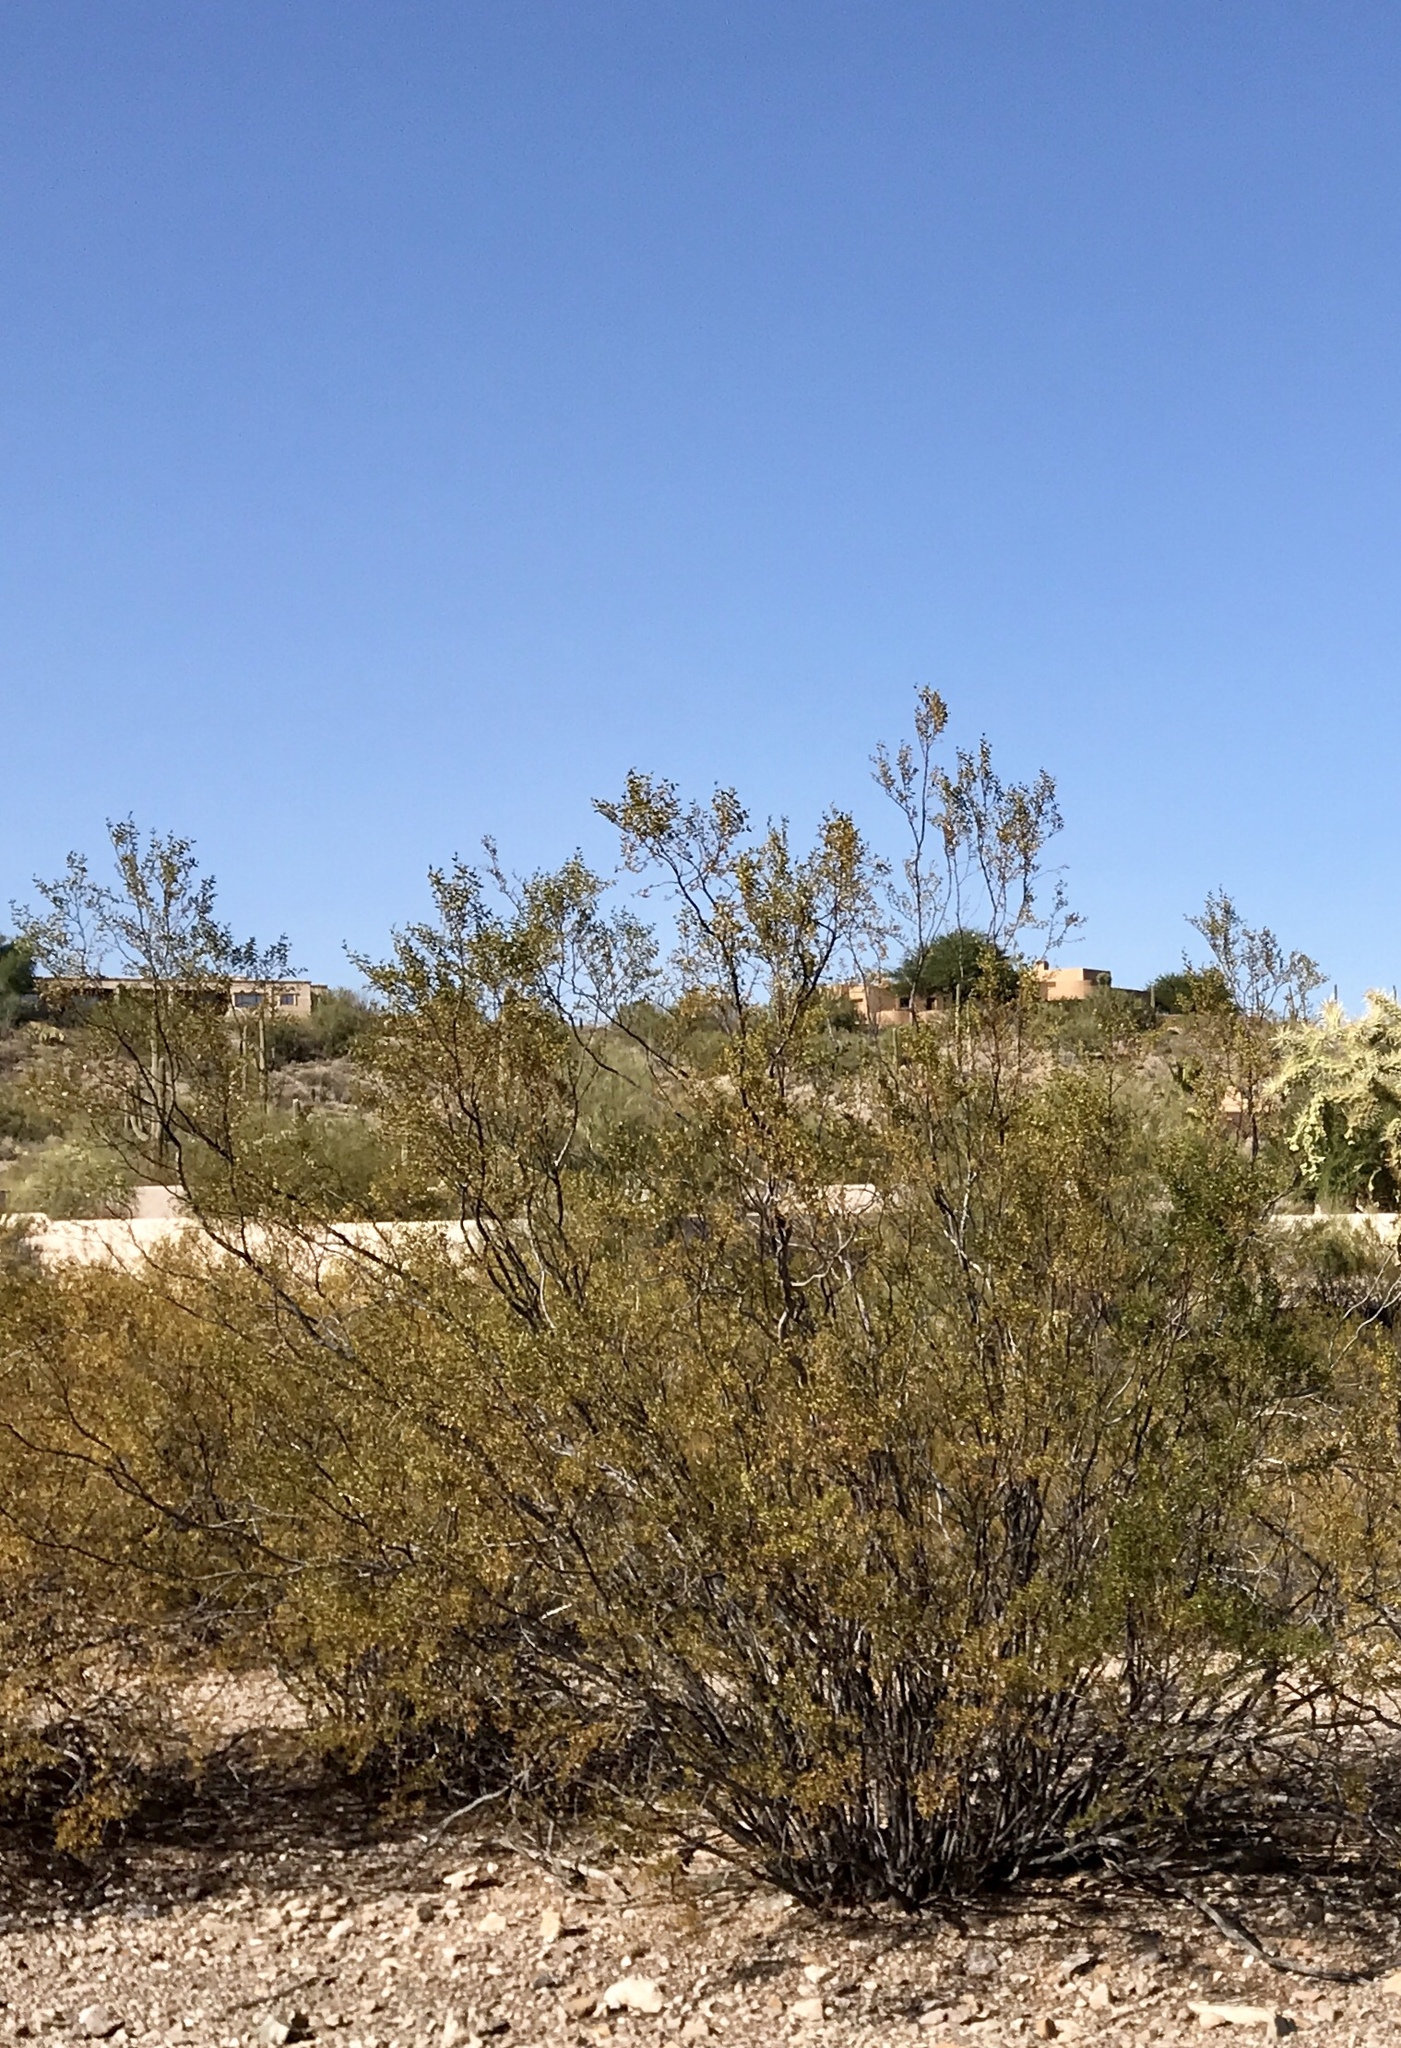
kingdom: Plantae
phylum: Tracheophyta
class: Magnoliopsida
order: Zygophyllales
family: Zygophyllaceae
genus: Larrea
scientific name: Larrea tridentata
